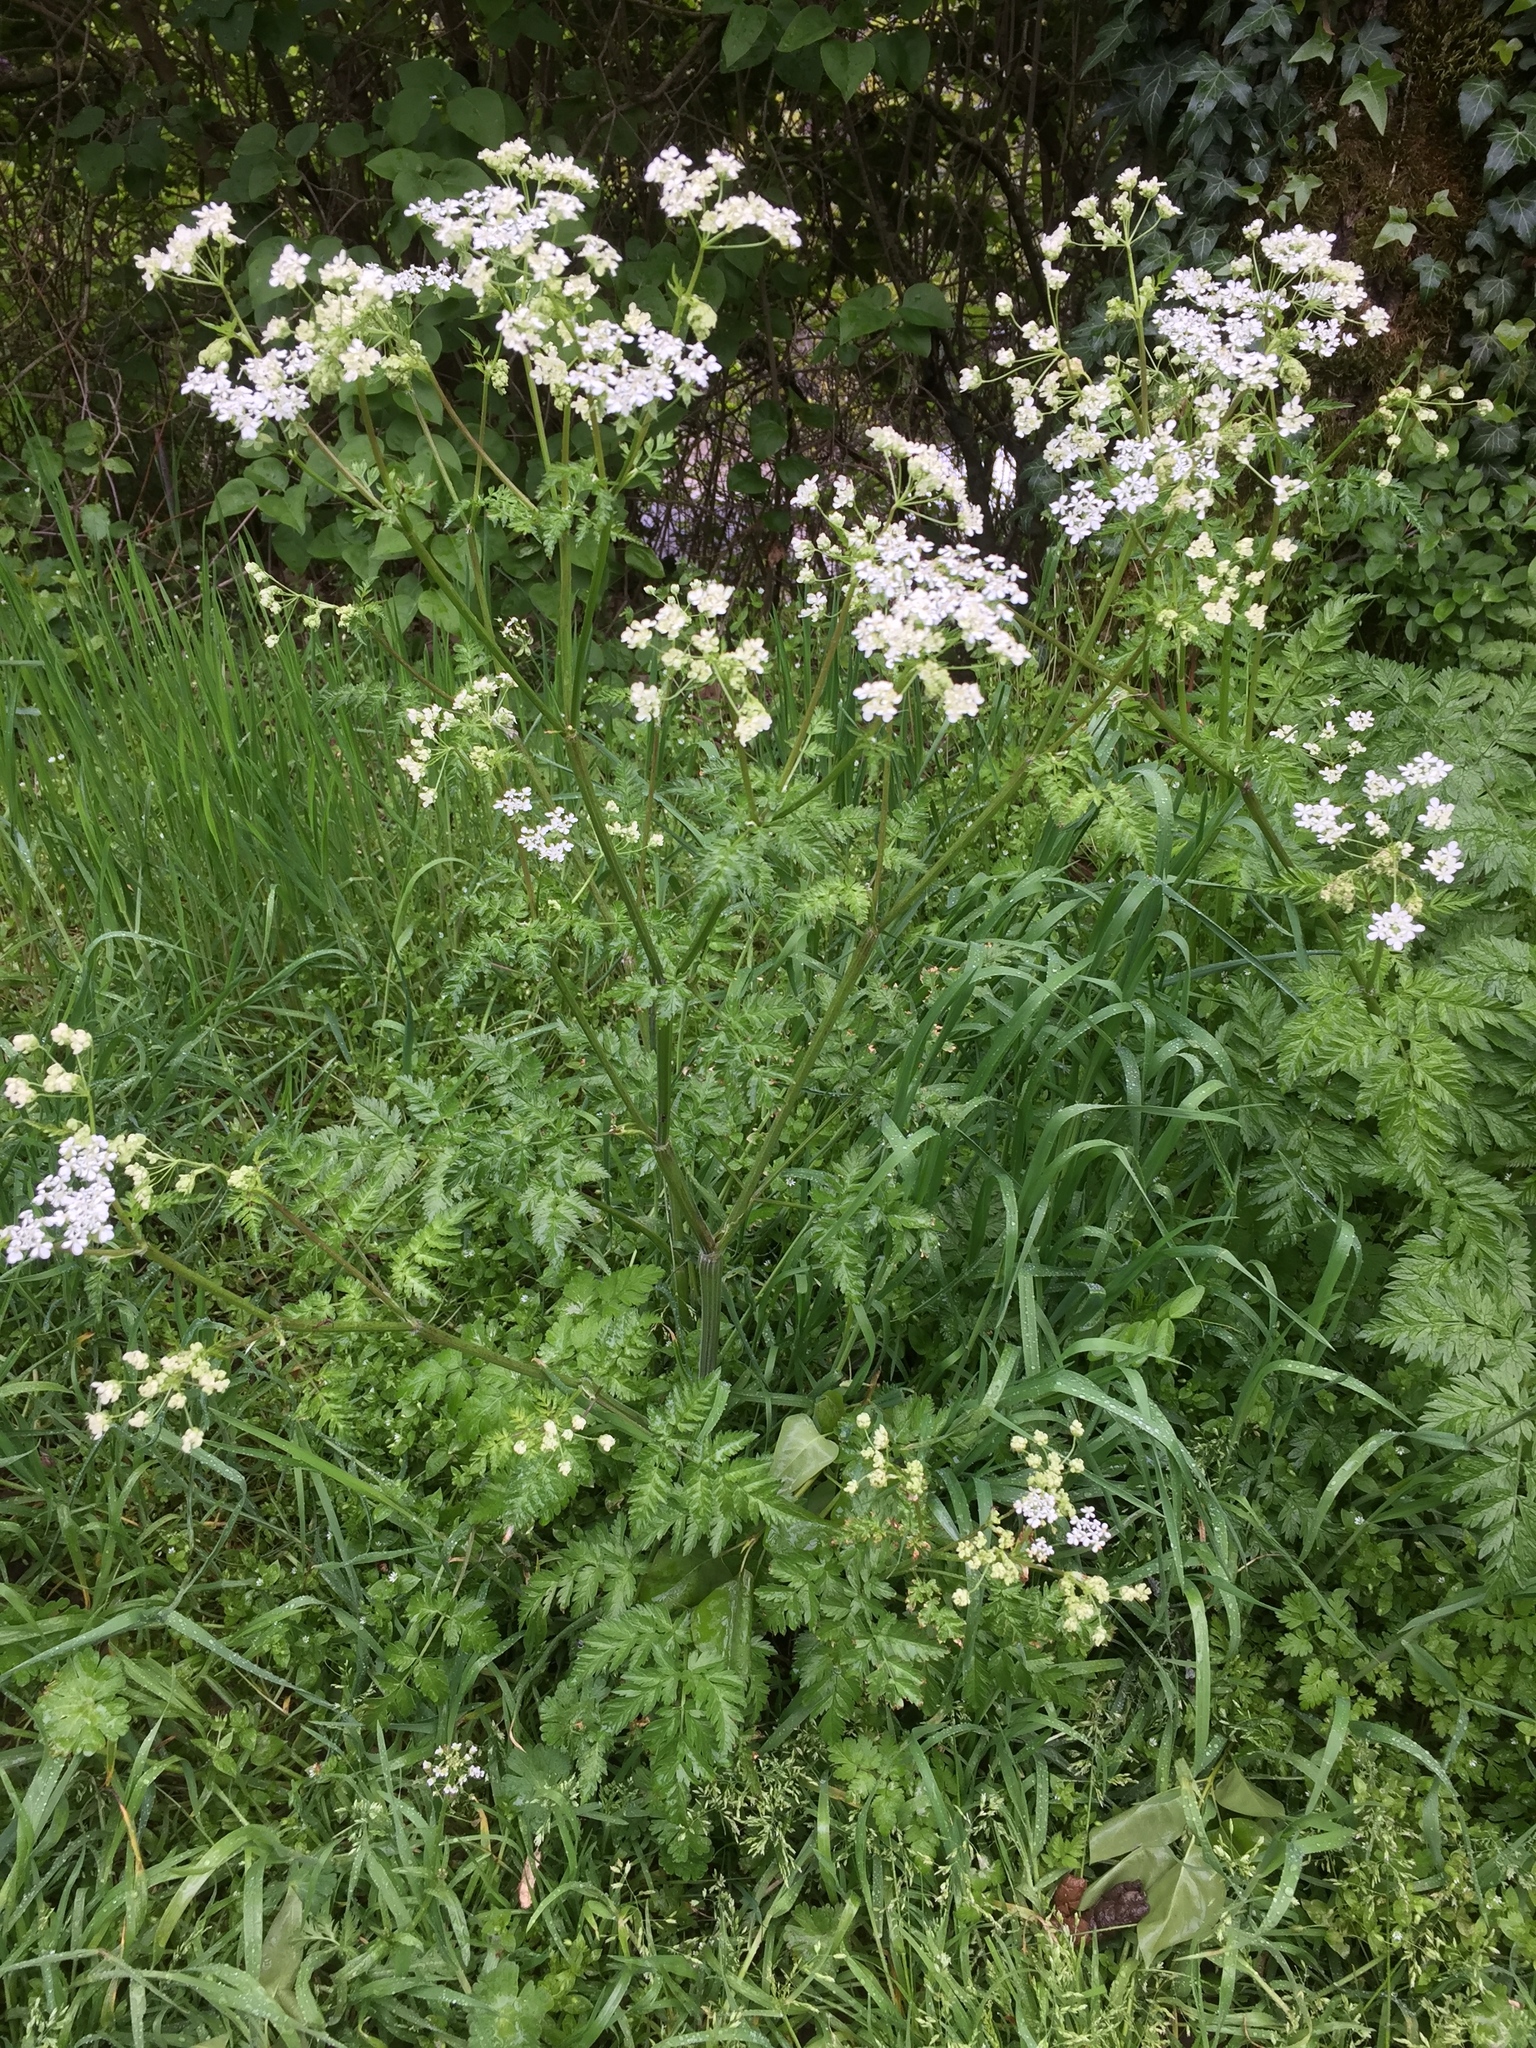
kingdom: Plantae
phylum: Tracheophyta
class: Magnoliopsida
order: Apiales
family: Apiaceae
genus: Anthriscus
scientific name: Anthriscus sylvestris
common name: Cow parsley
